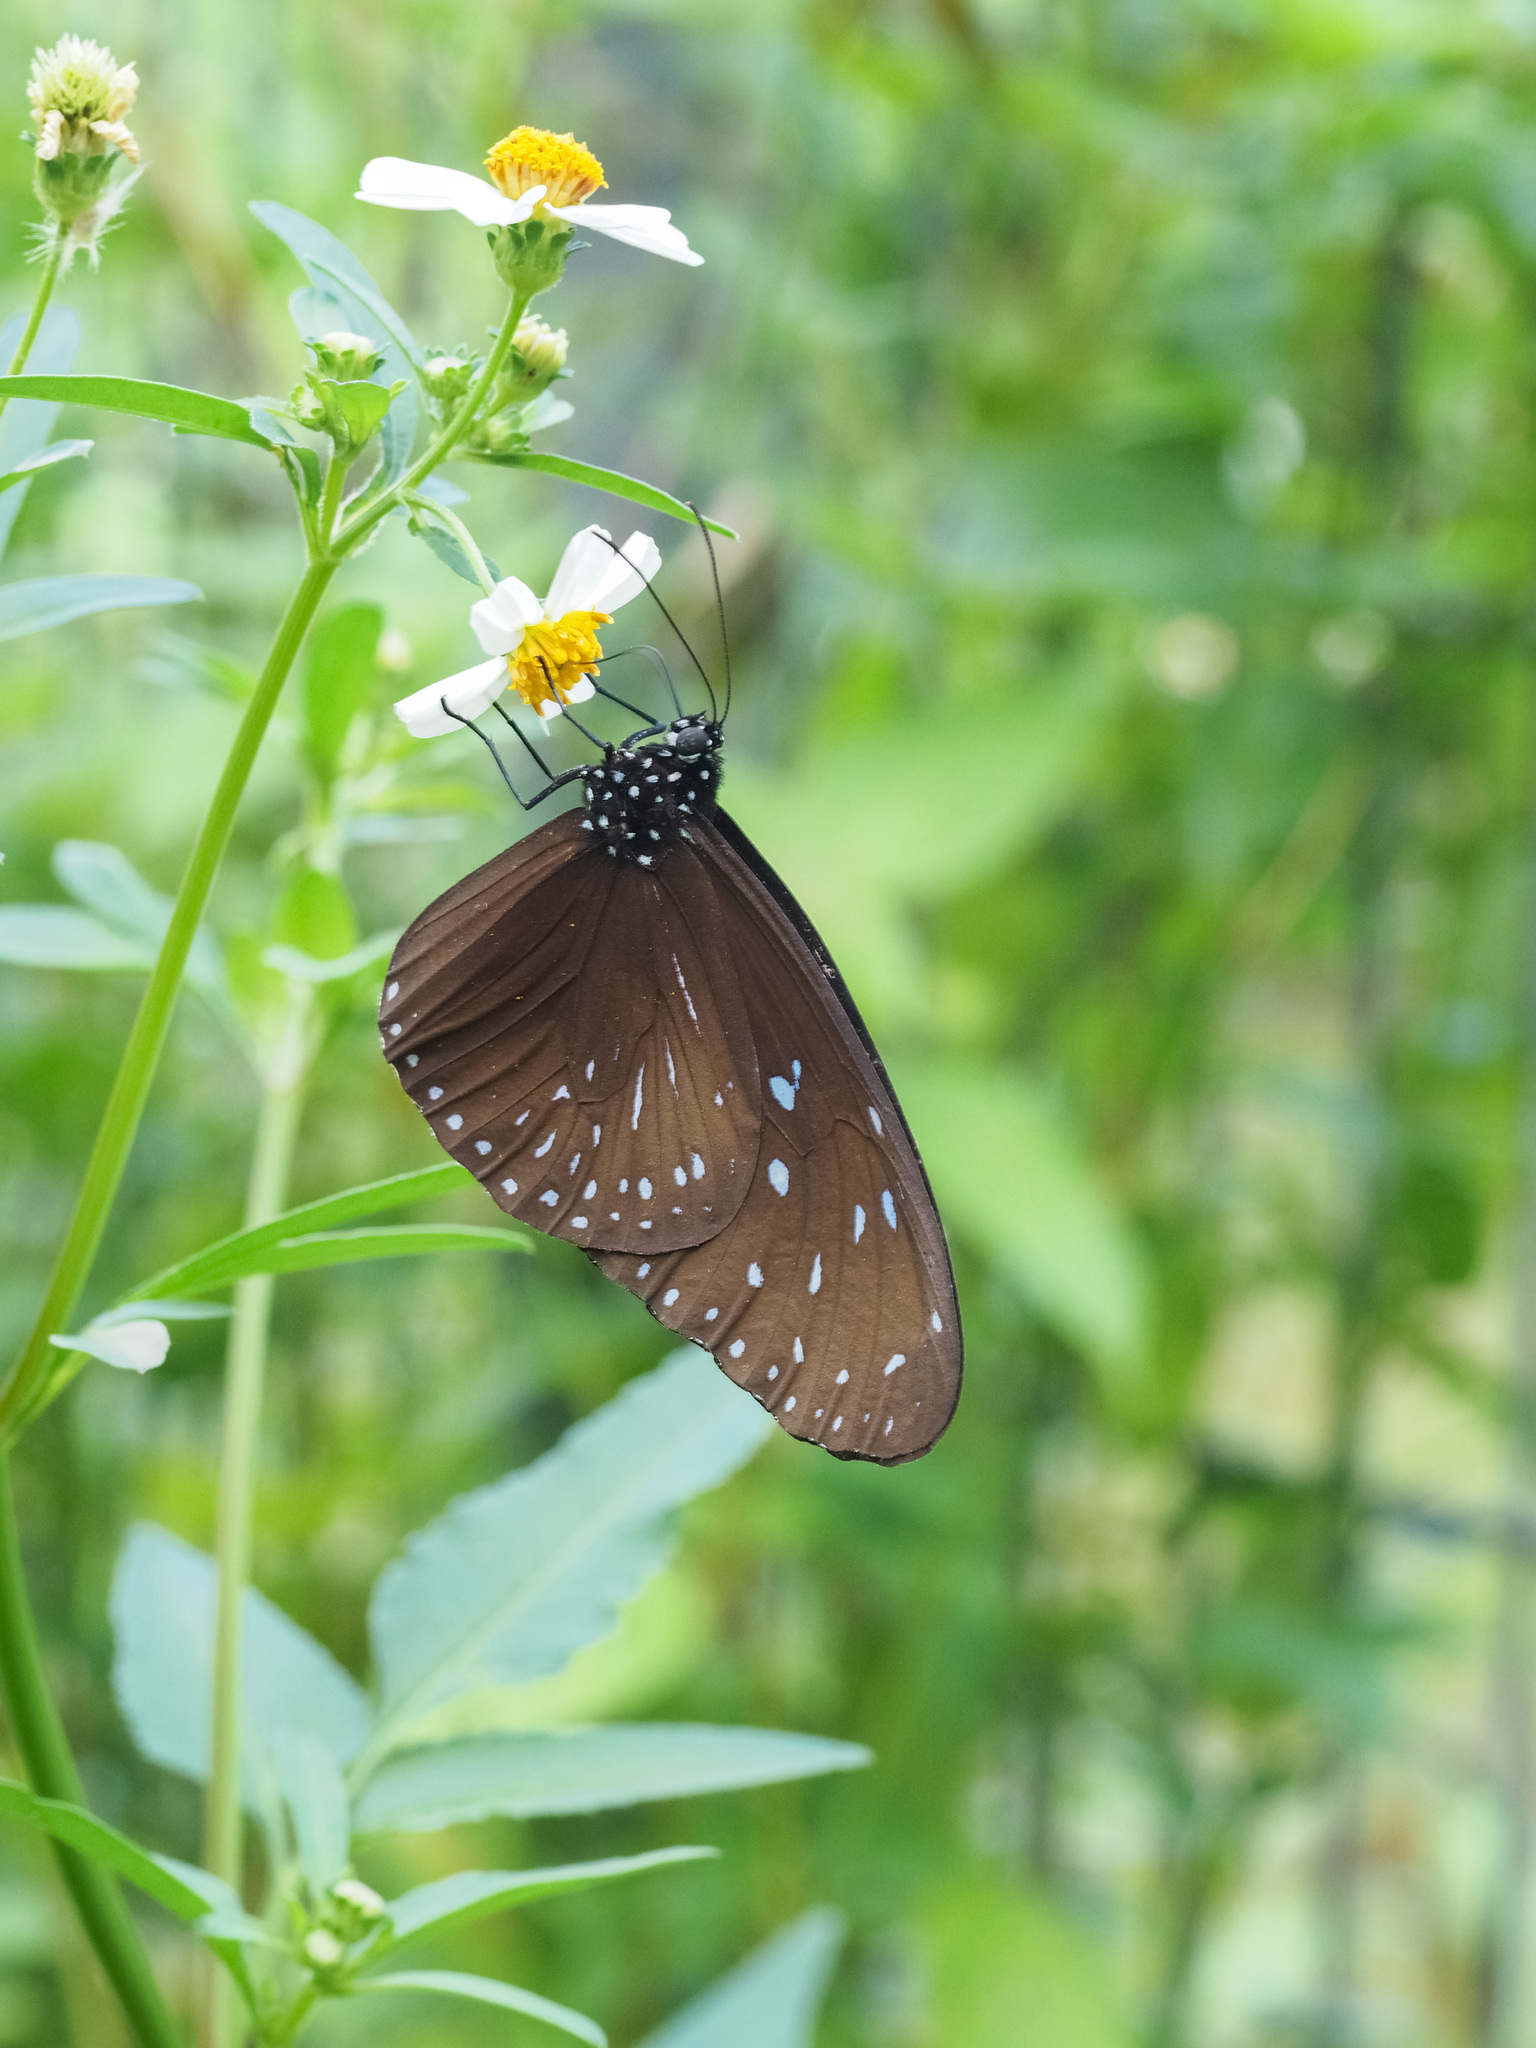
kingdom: Animalia
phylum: Arthropoda
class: Insecta
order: Lepidoptera
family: Nymphalidae
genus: Euploea
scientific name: Euploea mulciber
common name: Striped blue crow butterfly
